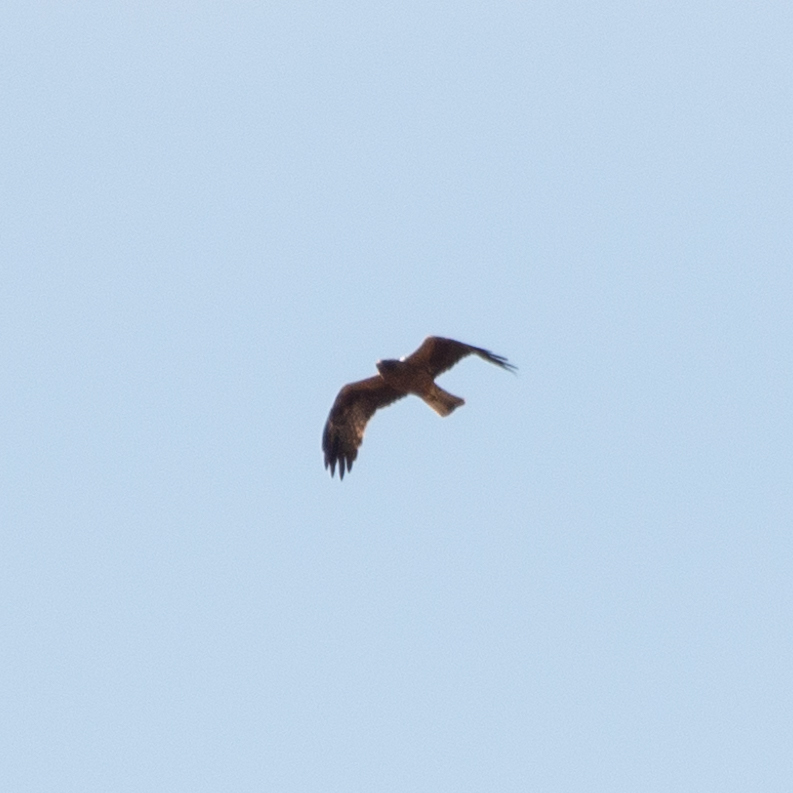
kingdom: Animalia
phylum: Chordata
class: Aves
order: Accipitriformes
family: Accipitridae
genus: Hieraaetus
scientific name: Hieraaetus pennatus
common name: Booted eagle
